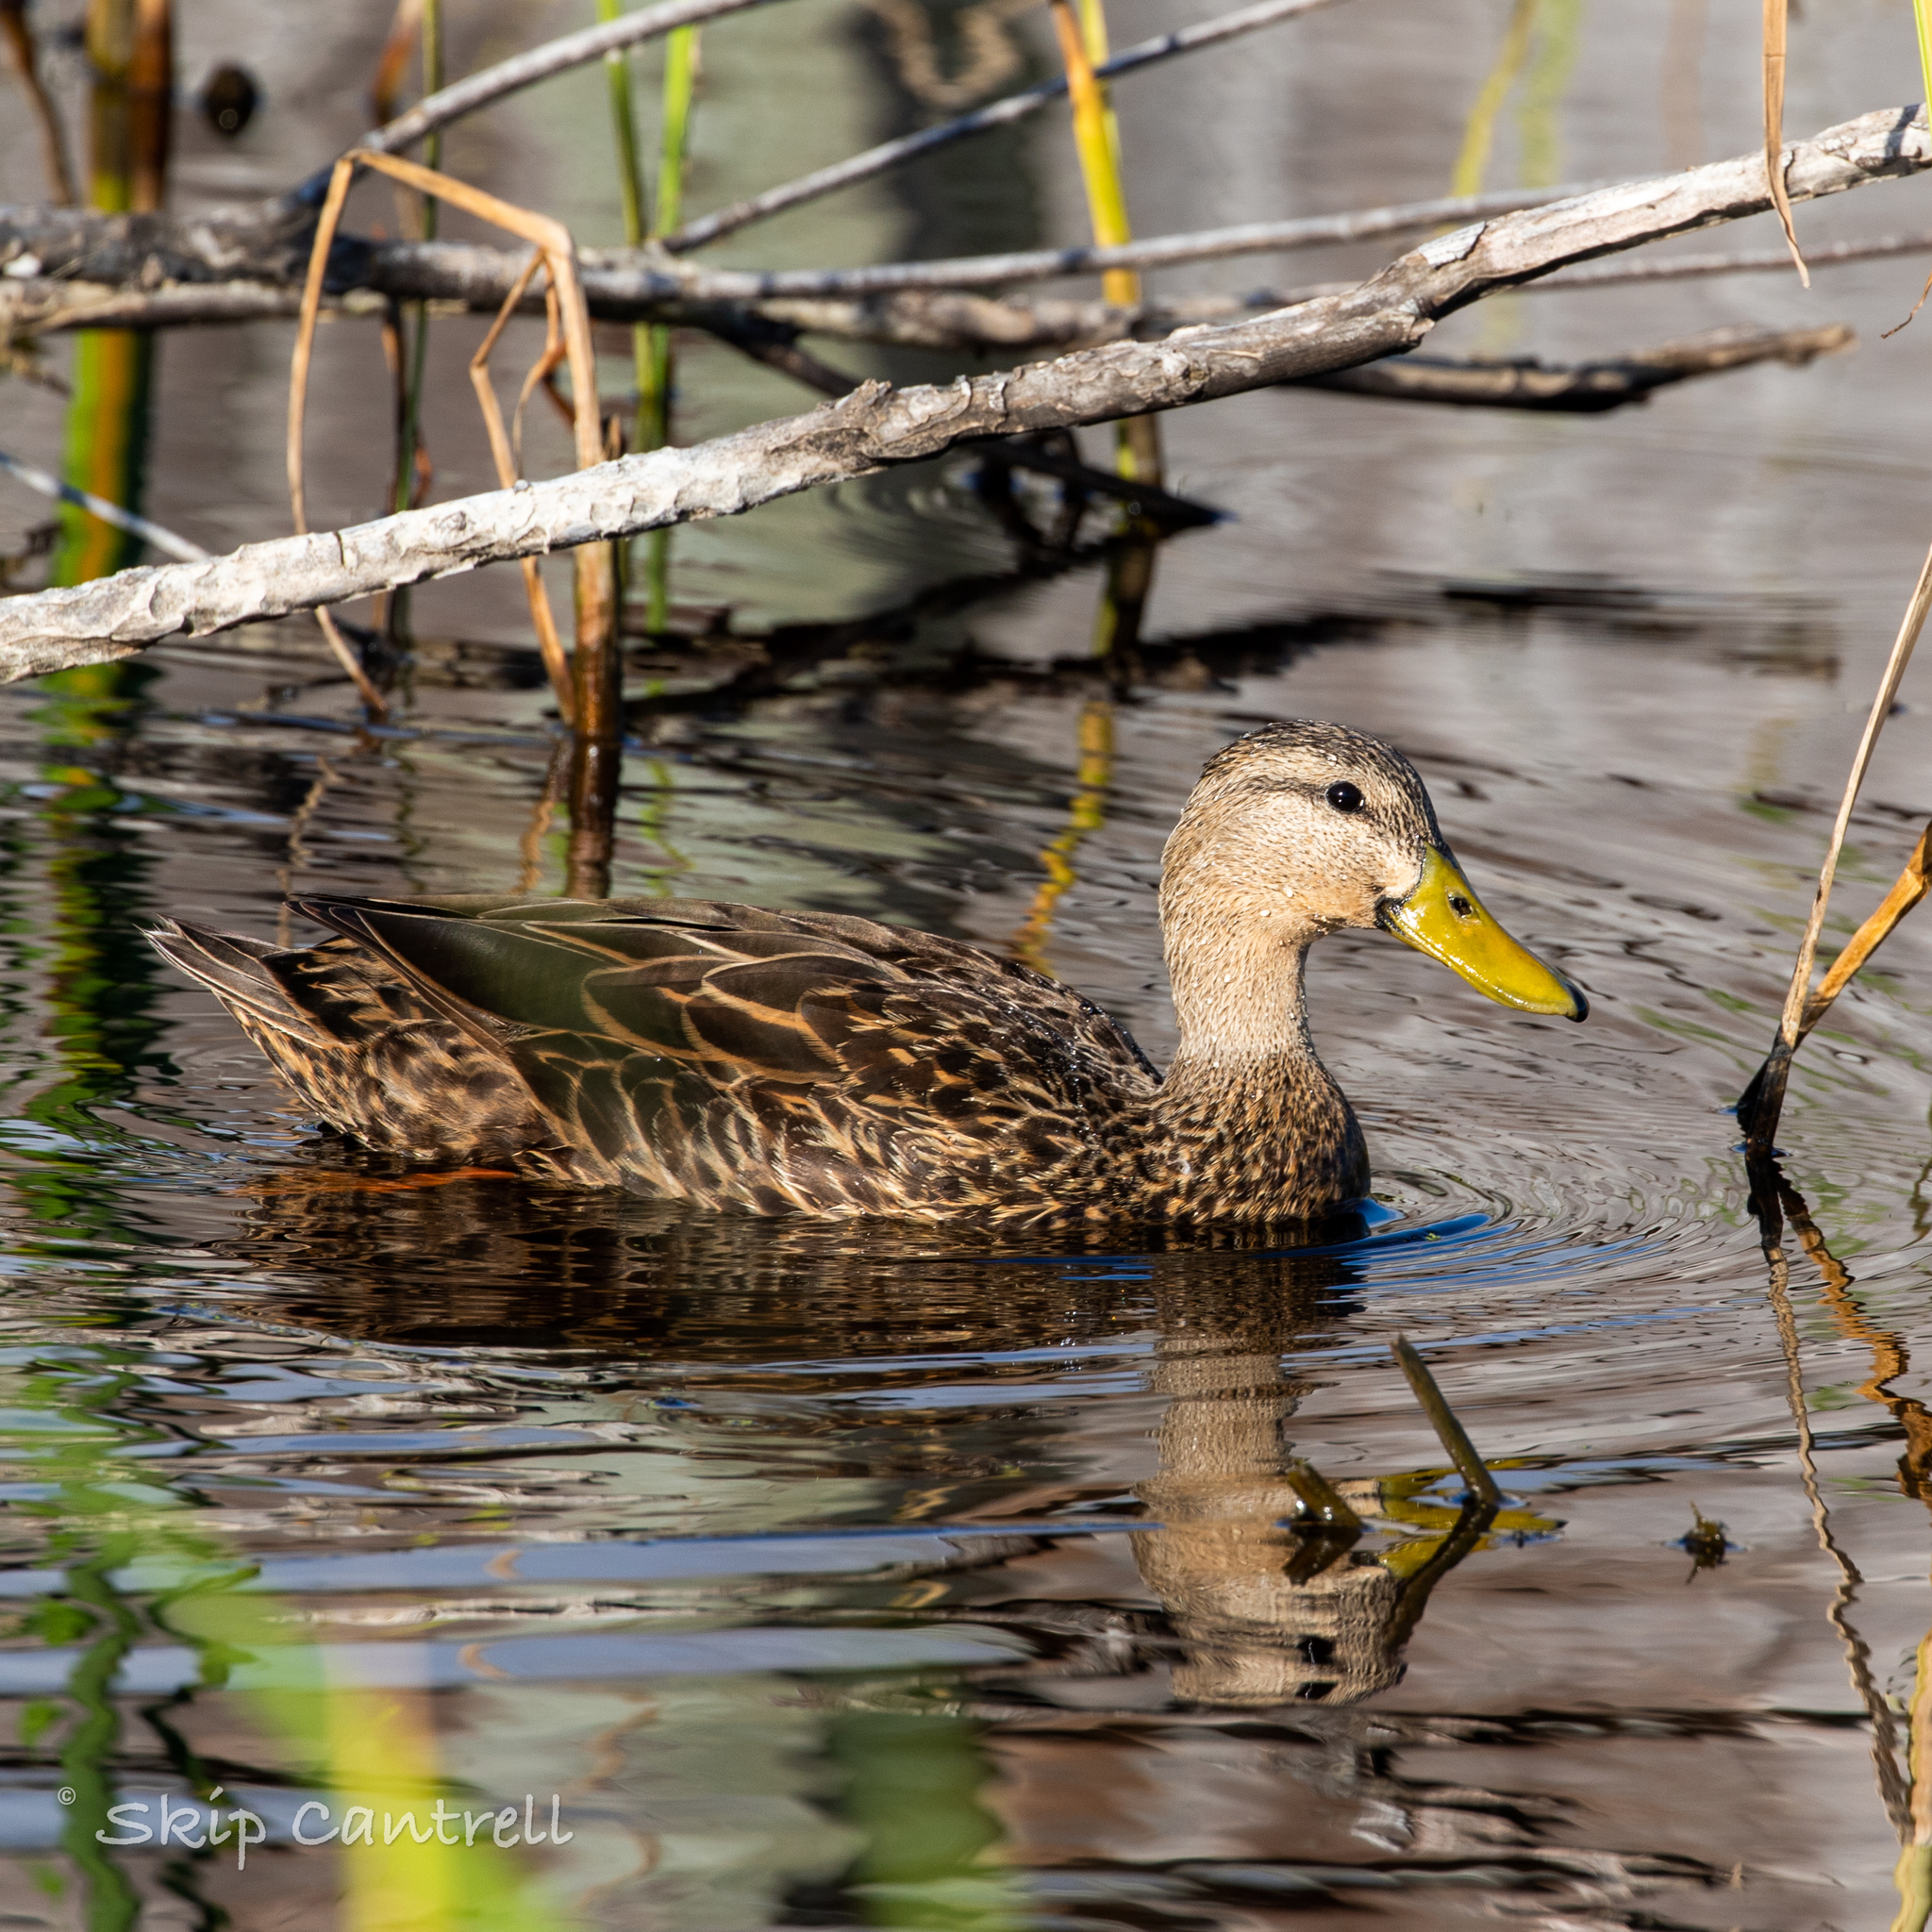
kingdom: Animalia
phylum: Chordata
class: Aves
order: Anseriformes
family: Anatidae
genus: Anas
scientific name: Anas fulvigula
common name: Mottled duck
